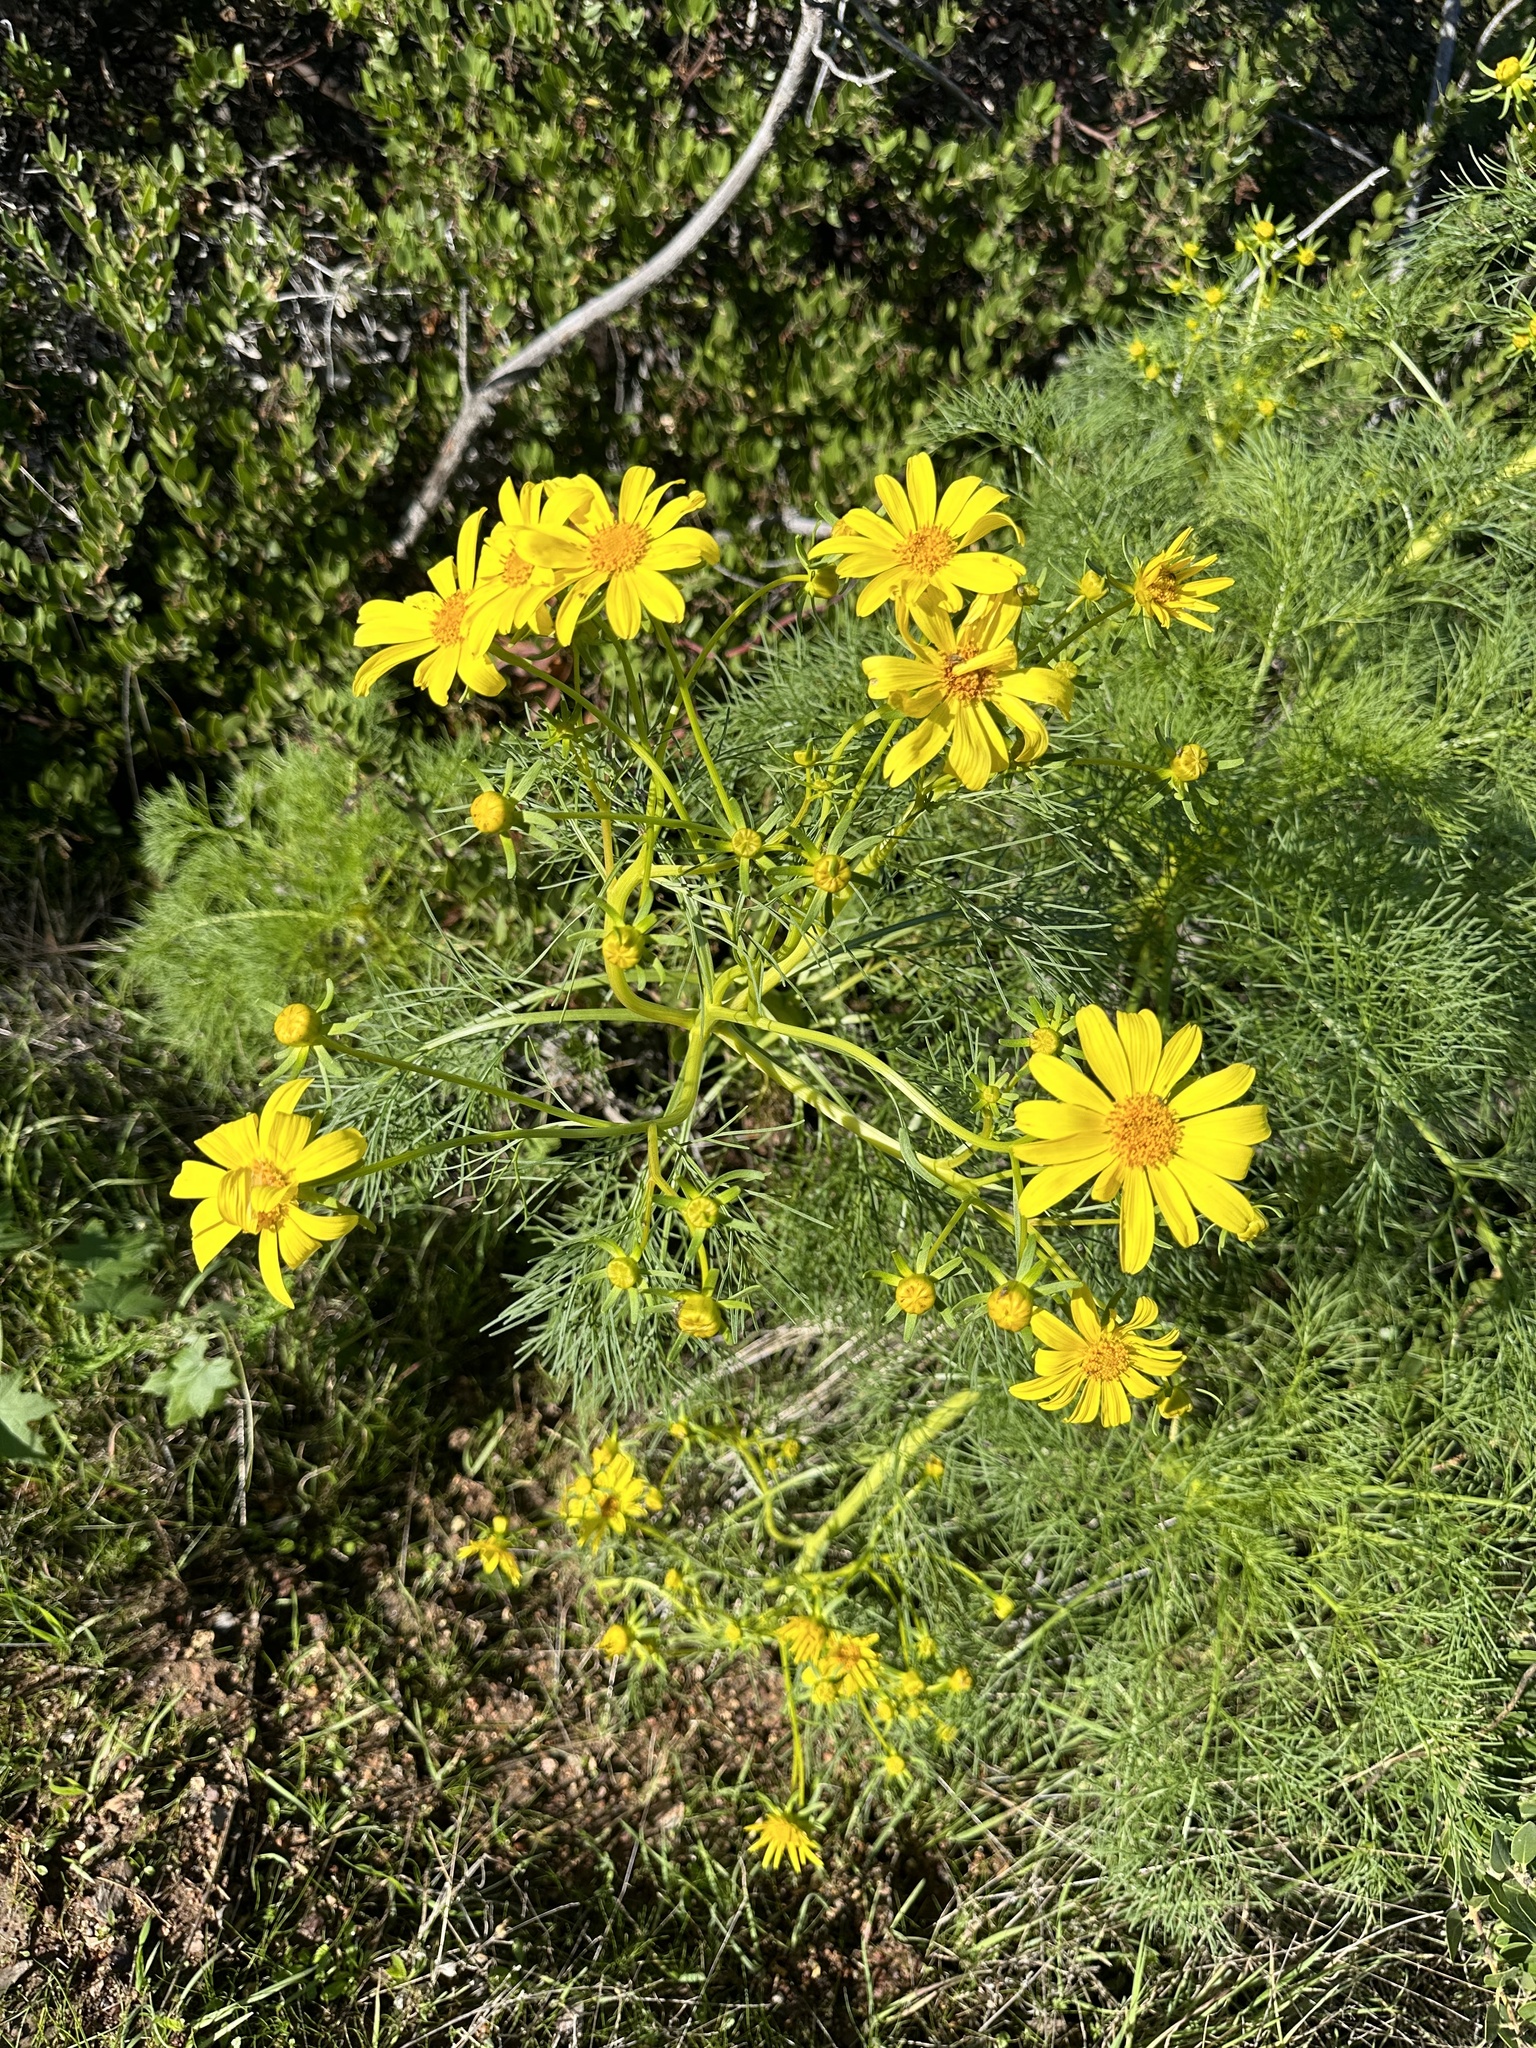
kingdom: Plantae
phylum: Tracheophyta
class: Magnoliopsida
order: Asterales
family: Asteraceae
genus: Coreopsis
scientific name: Coreopsis gigantea
